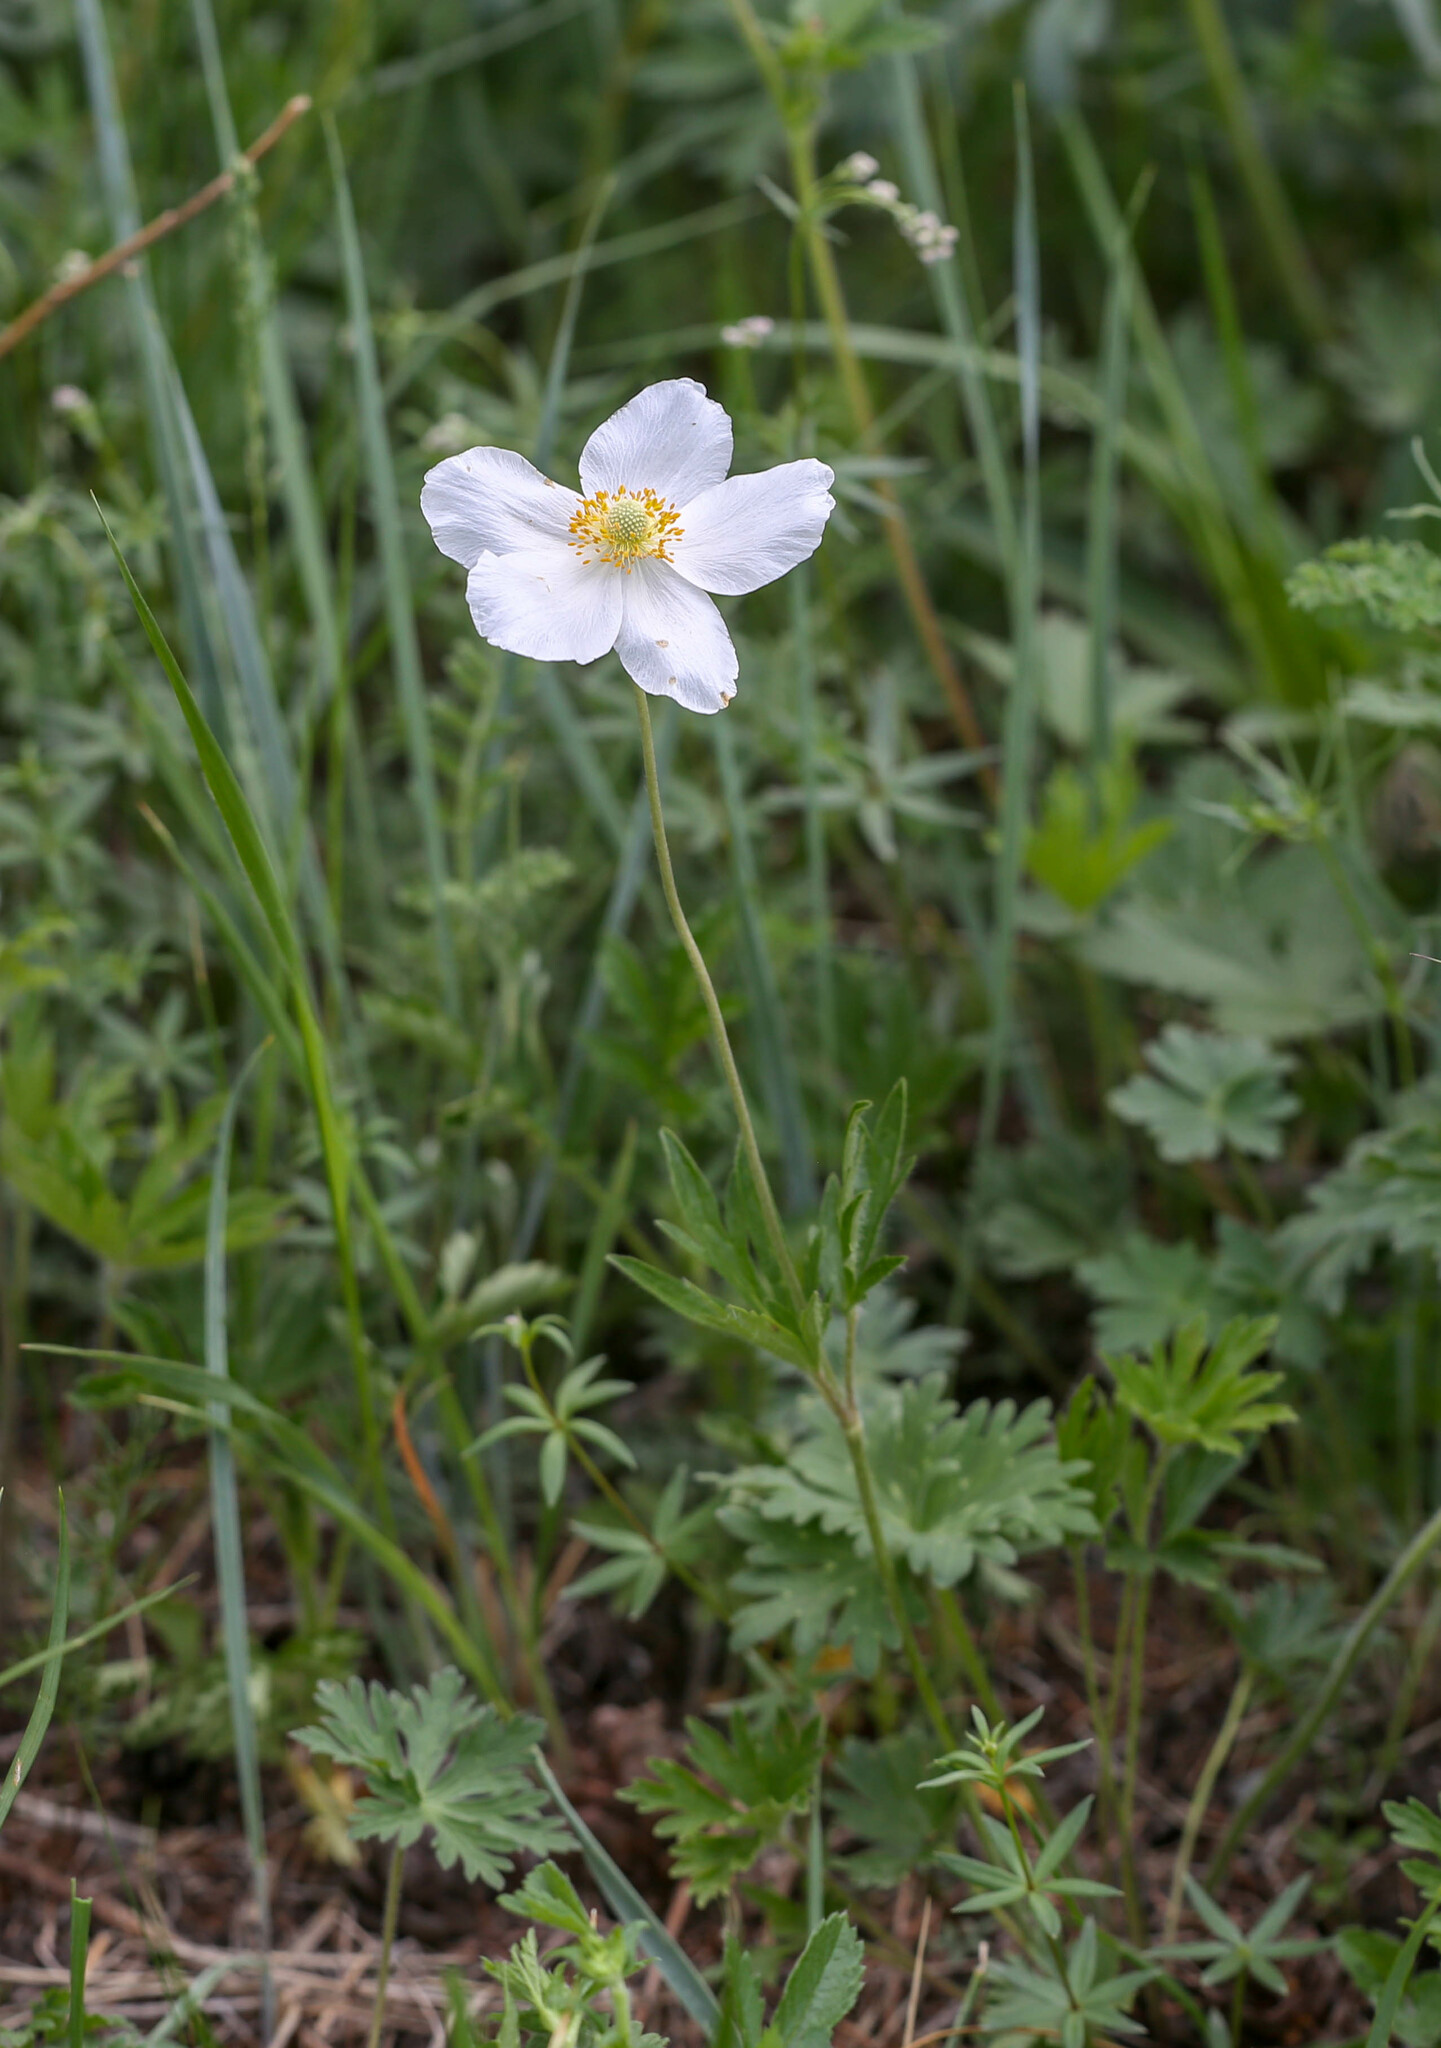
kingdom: Plantae
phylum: Tracheophyta
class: Magnoliopsida
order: Ranunculales
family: Ranunculaceae
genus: Anemone
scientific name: Anemone sylvestris
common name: Snowdrop anemone
